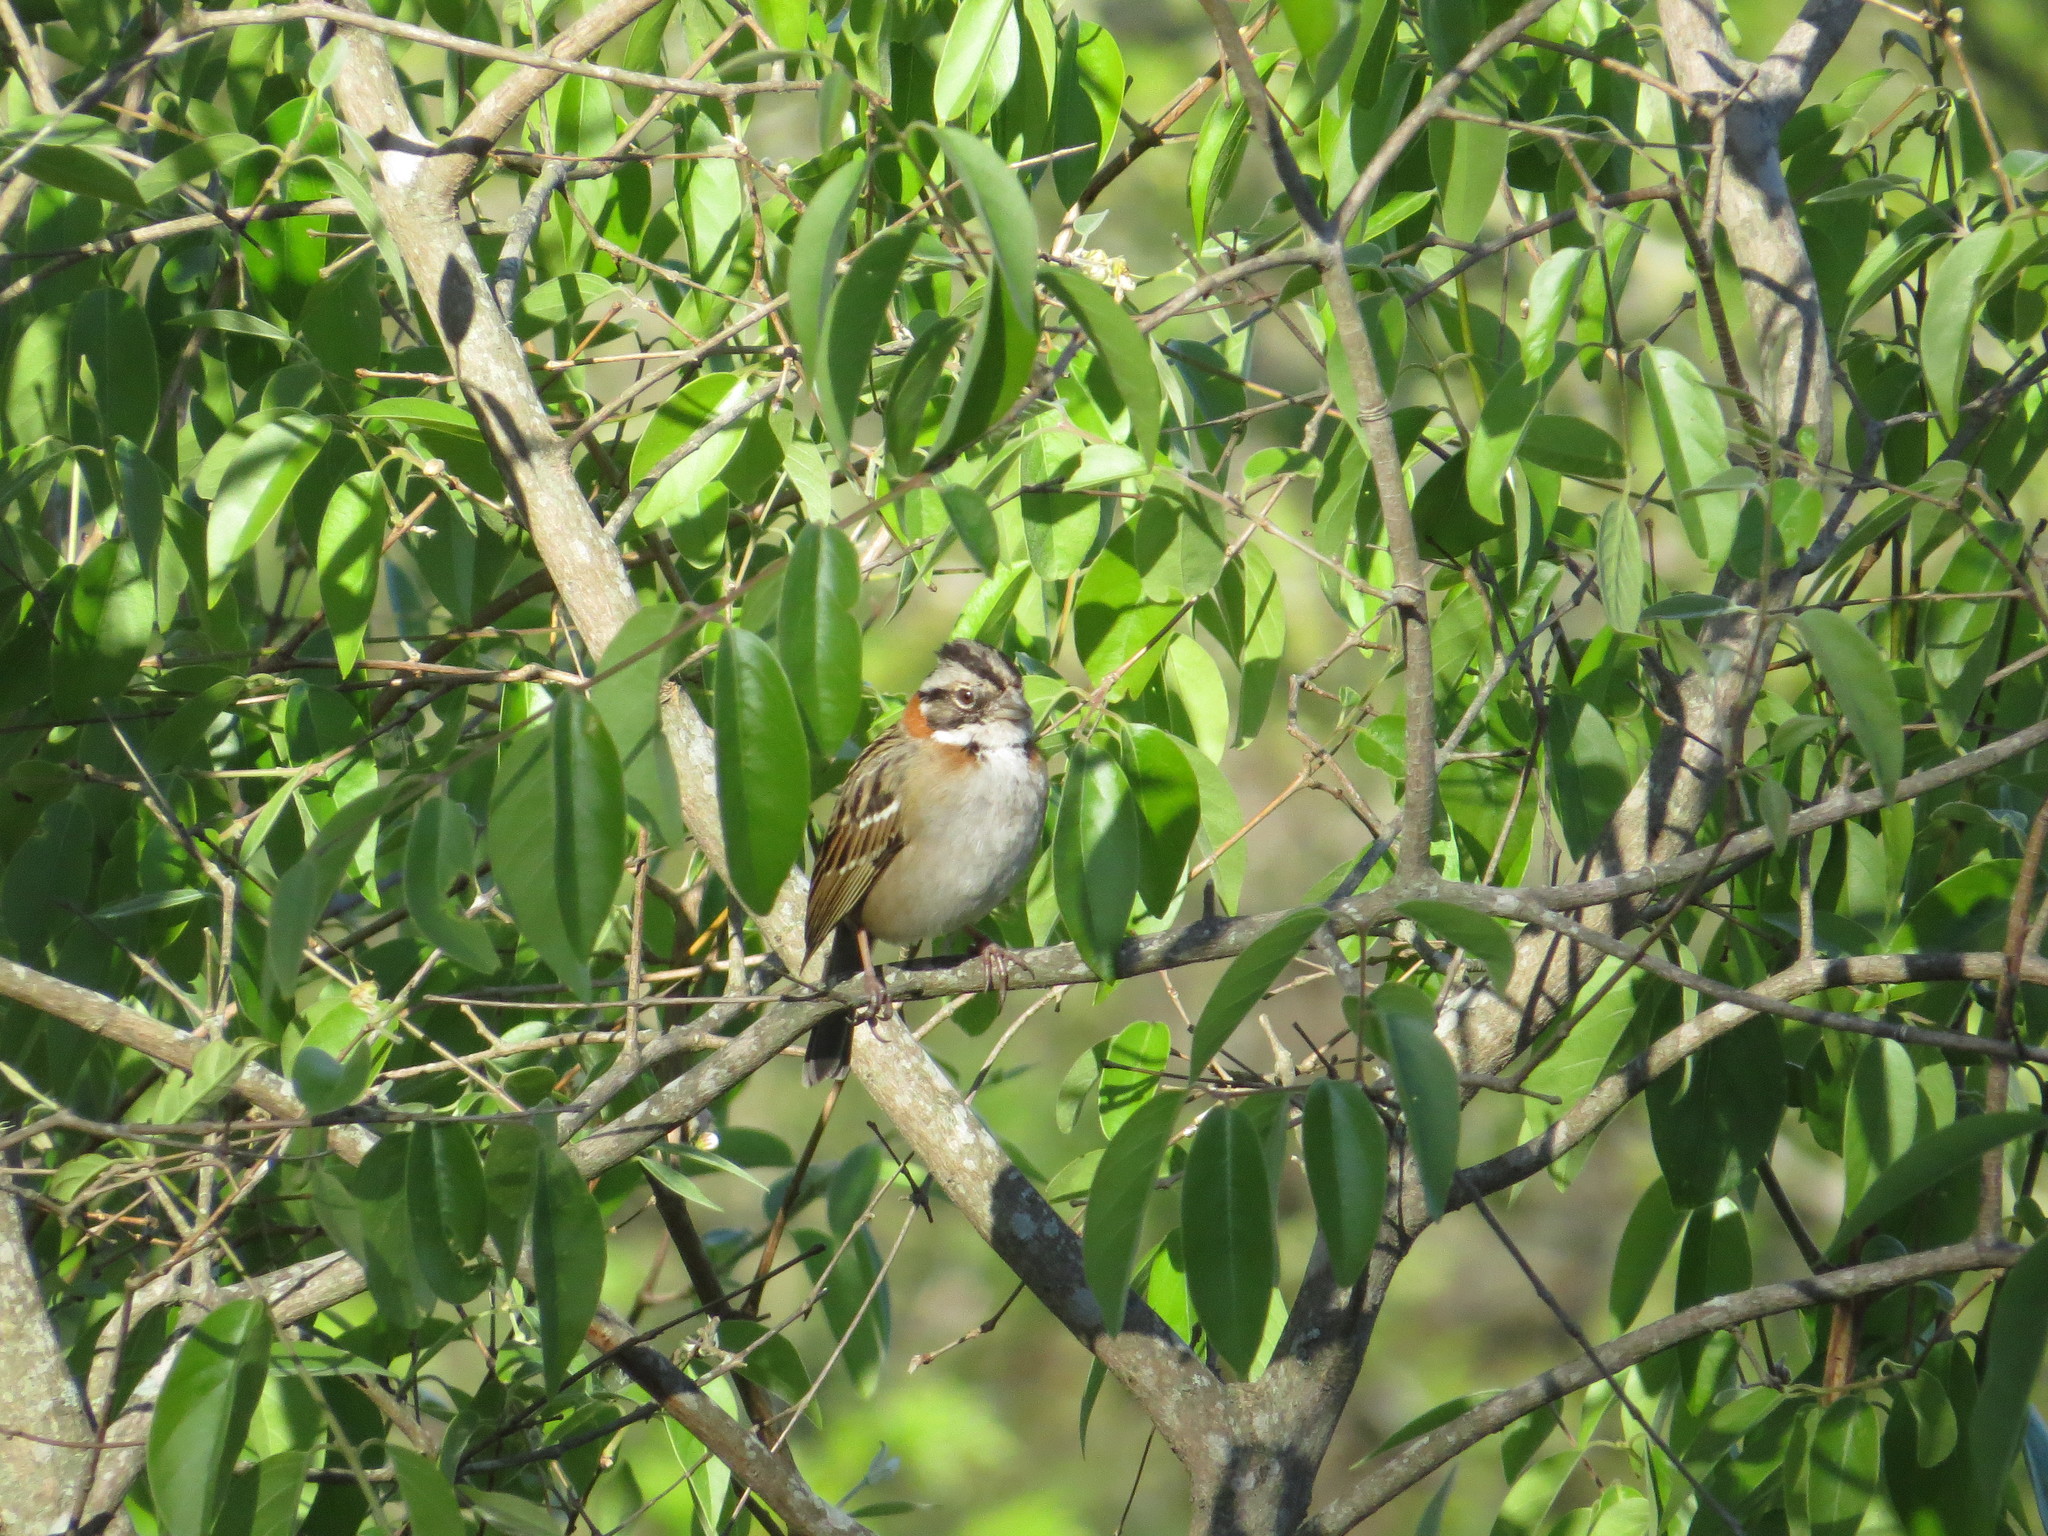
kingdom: Animalia
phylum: Chordata
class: Aves
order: Passeriformes
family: Passerellidae
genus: Zonotrichia
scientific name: Zonotrichia capensis
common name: Rufous-collared sparrow
